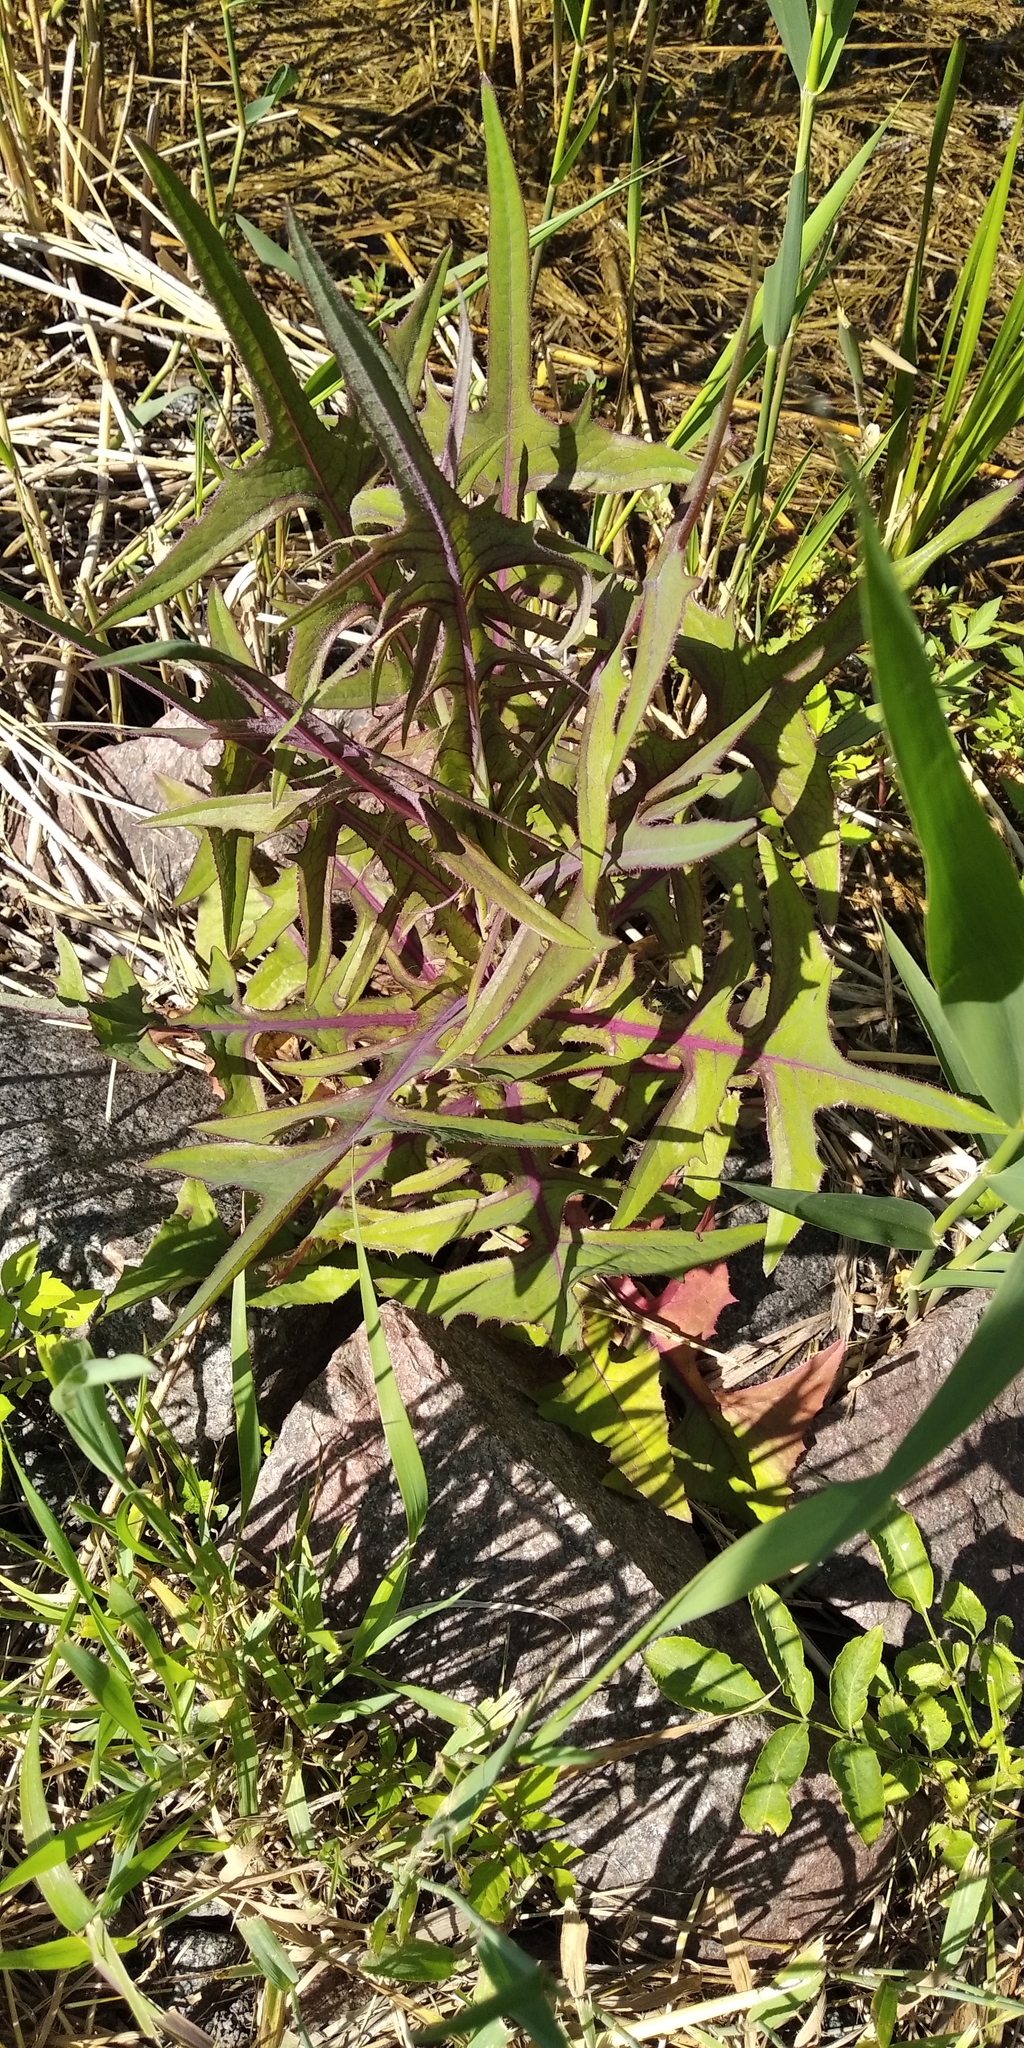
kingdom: Plantae
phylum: Tracheophyta
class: Magnoliopsida
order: Asterales
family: Asteraceae
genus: Sonchus
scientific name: Sonchus palustris
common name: Marsh sow-thistle
